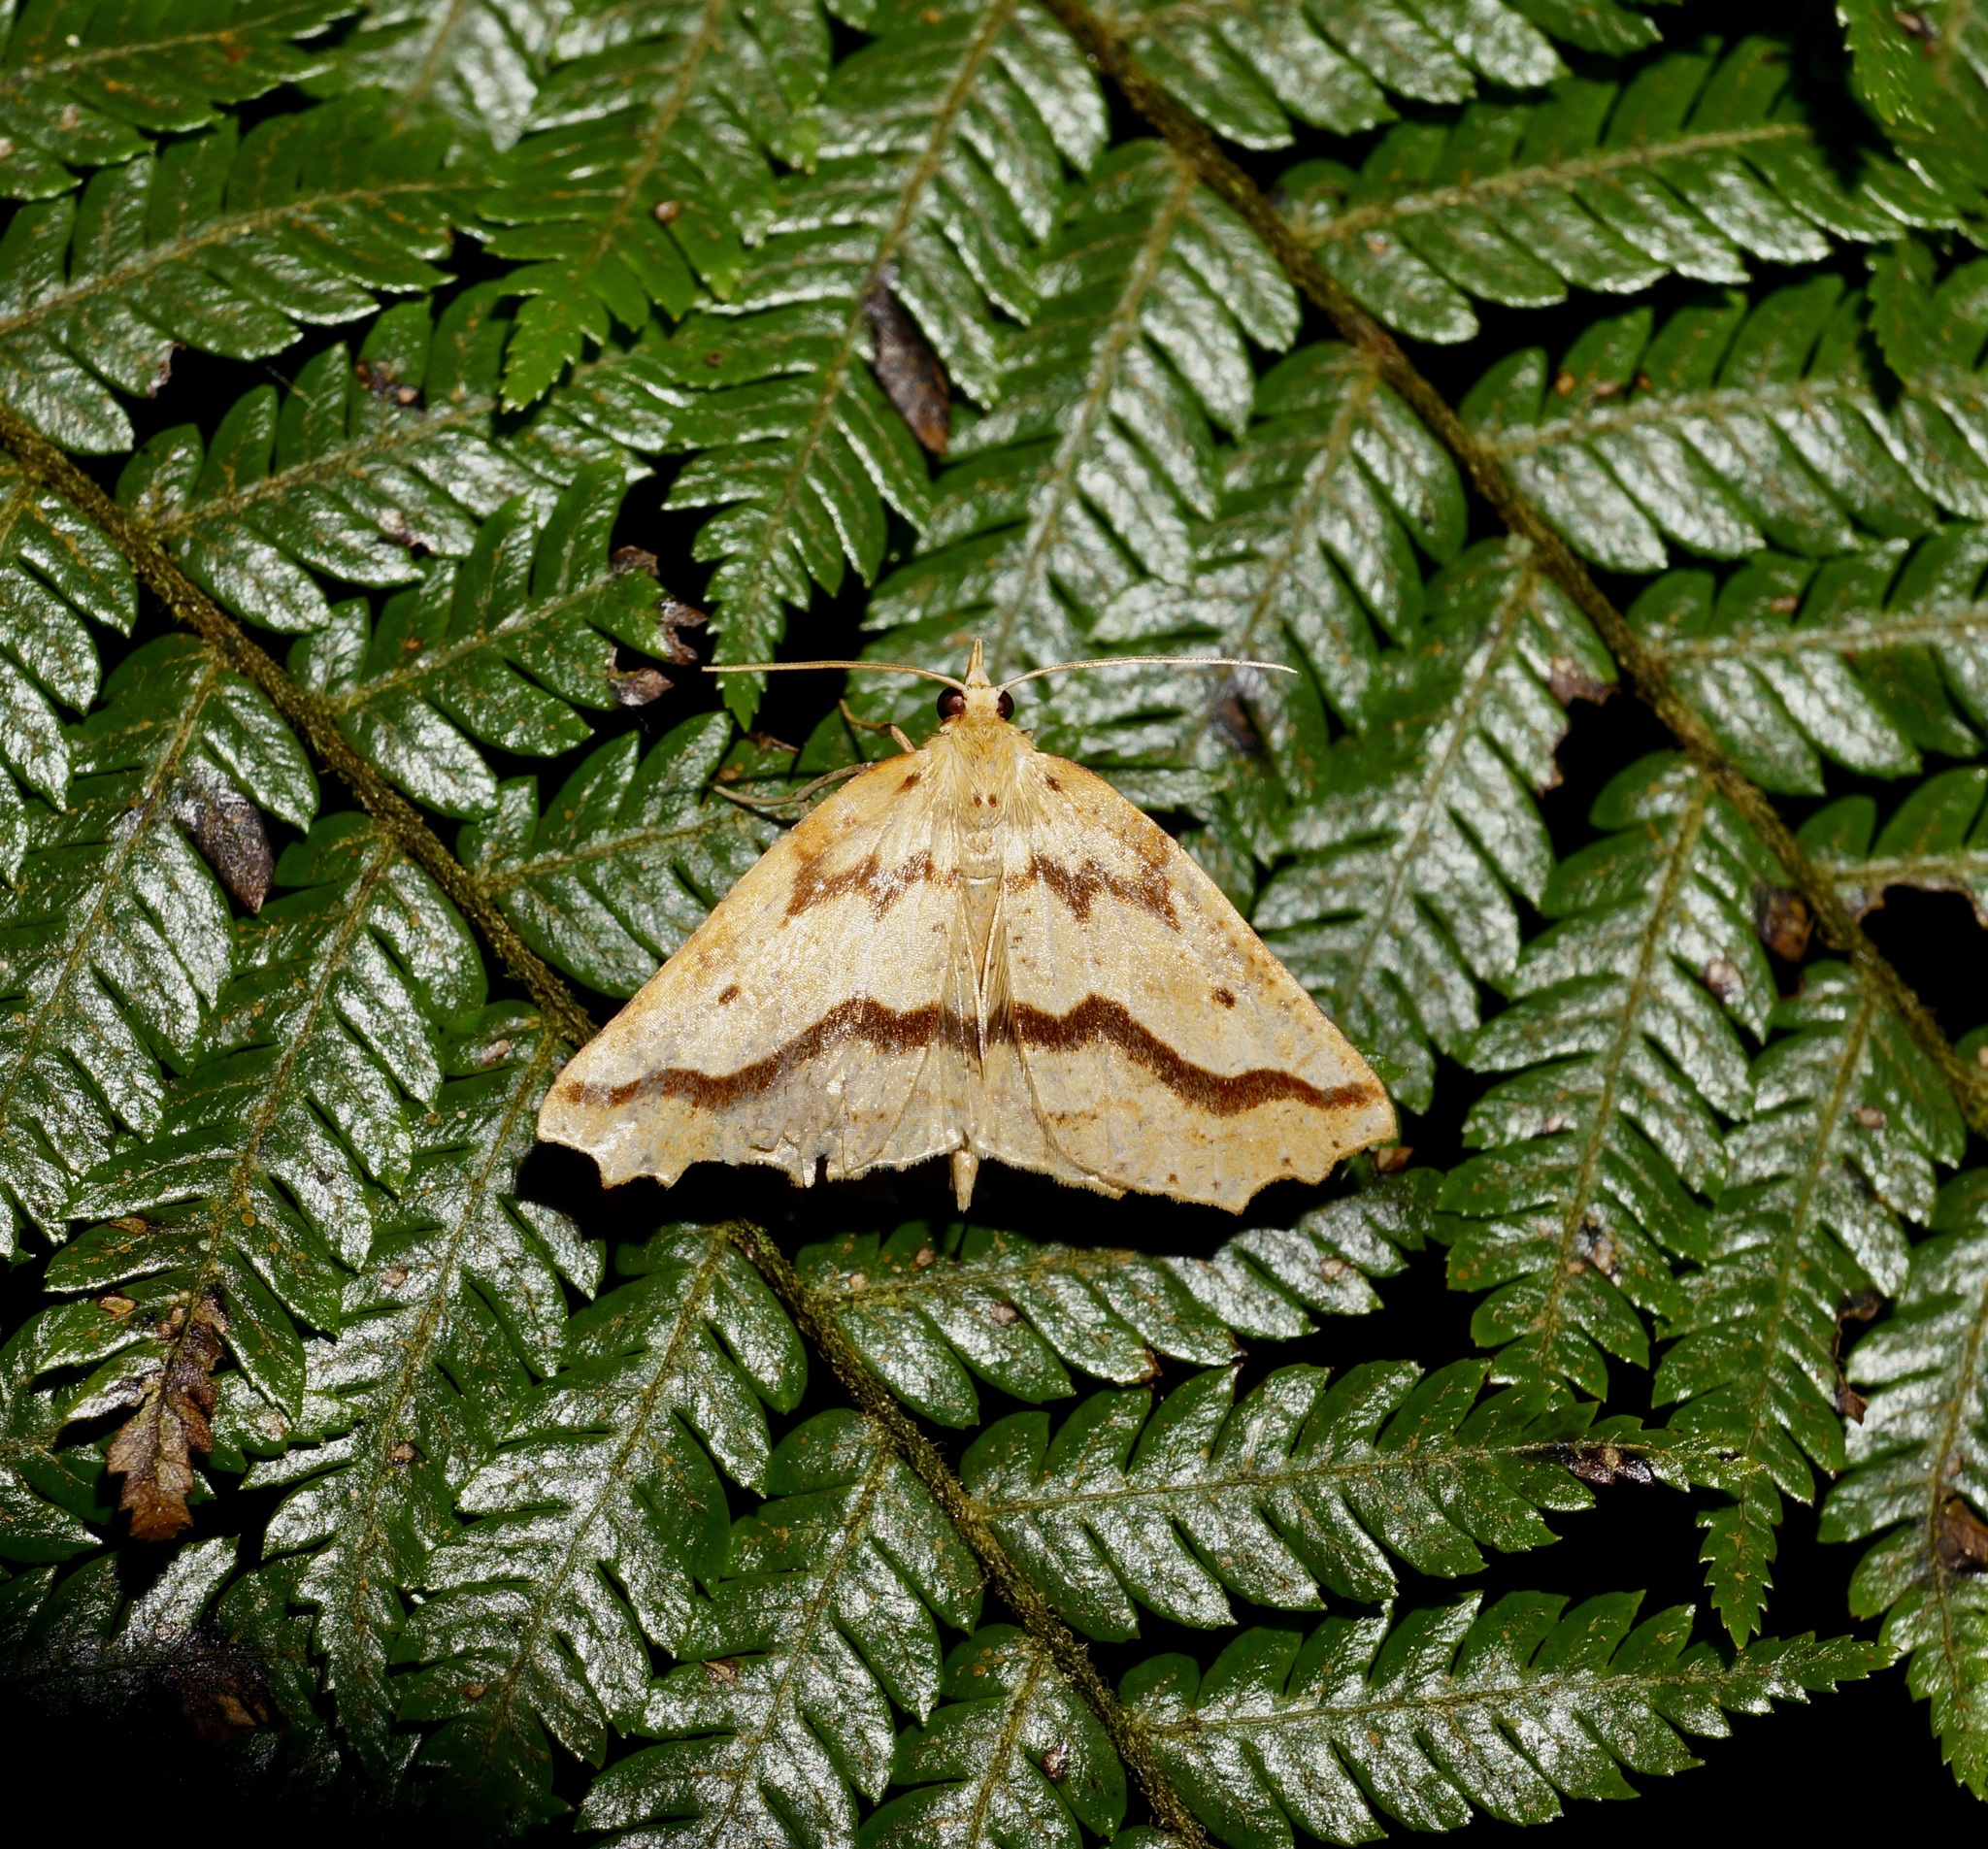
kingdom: Animalia
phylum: Arthropoda
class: Insecta
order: Lepidoptera
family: Geometridae
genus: Ischalis
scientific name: Ischalis variabilis
